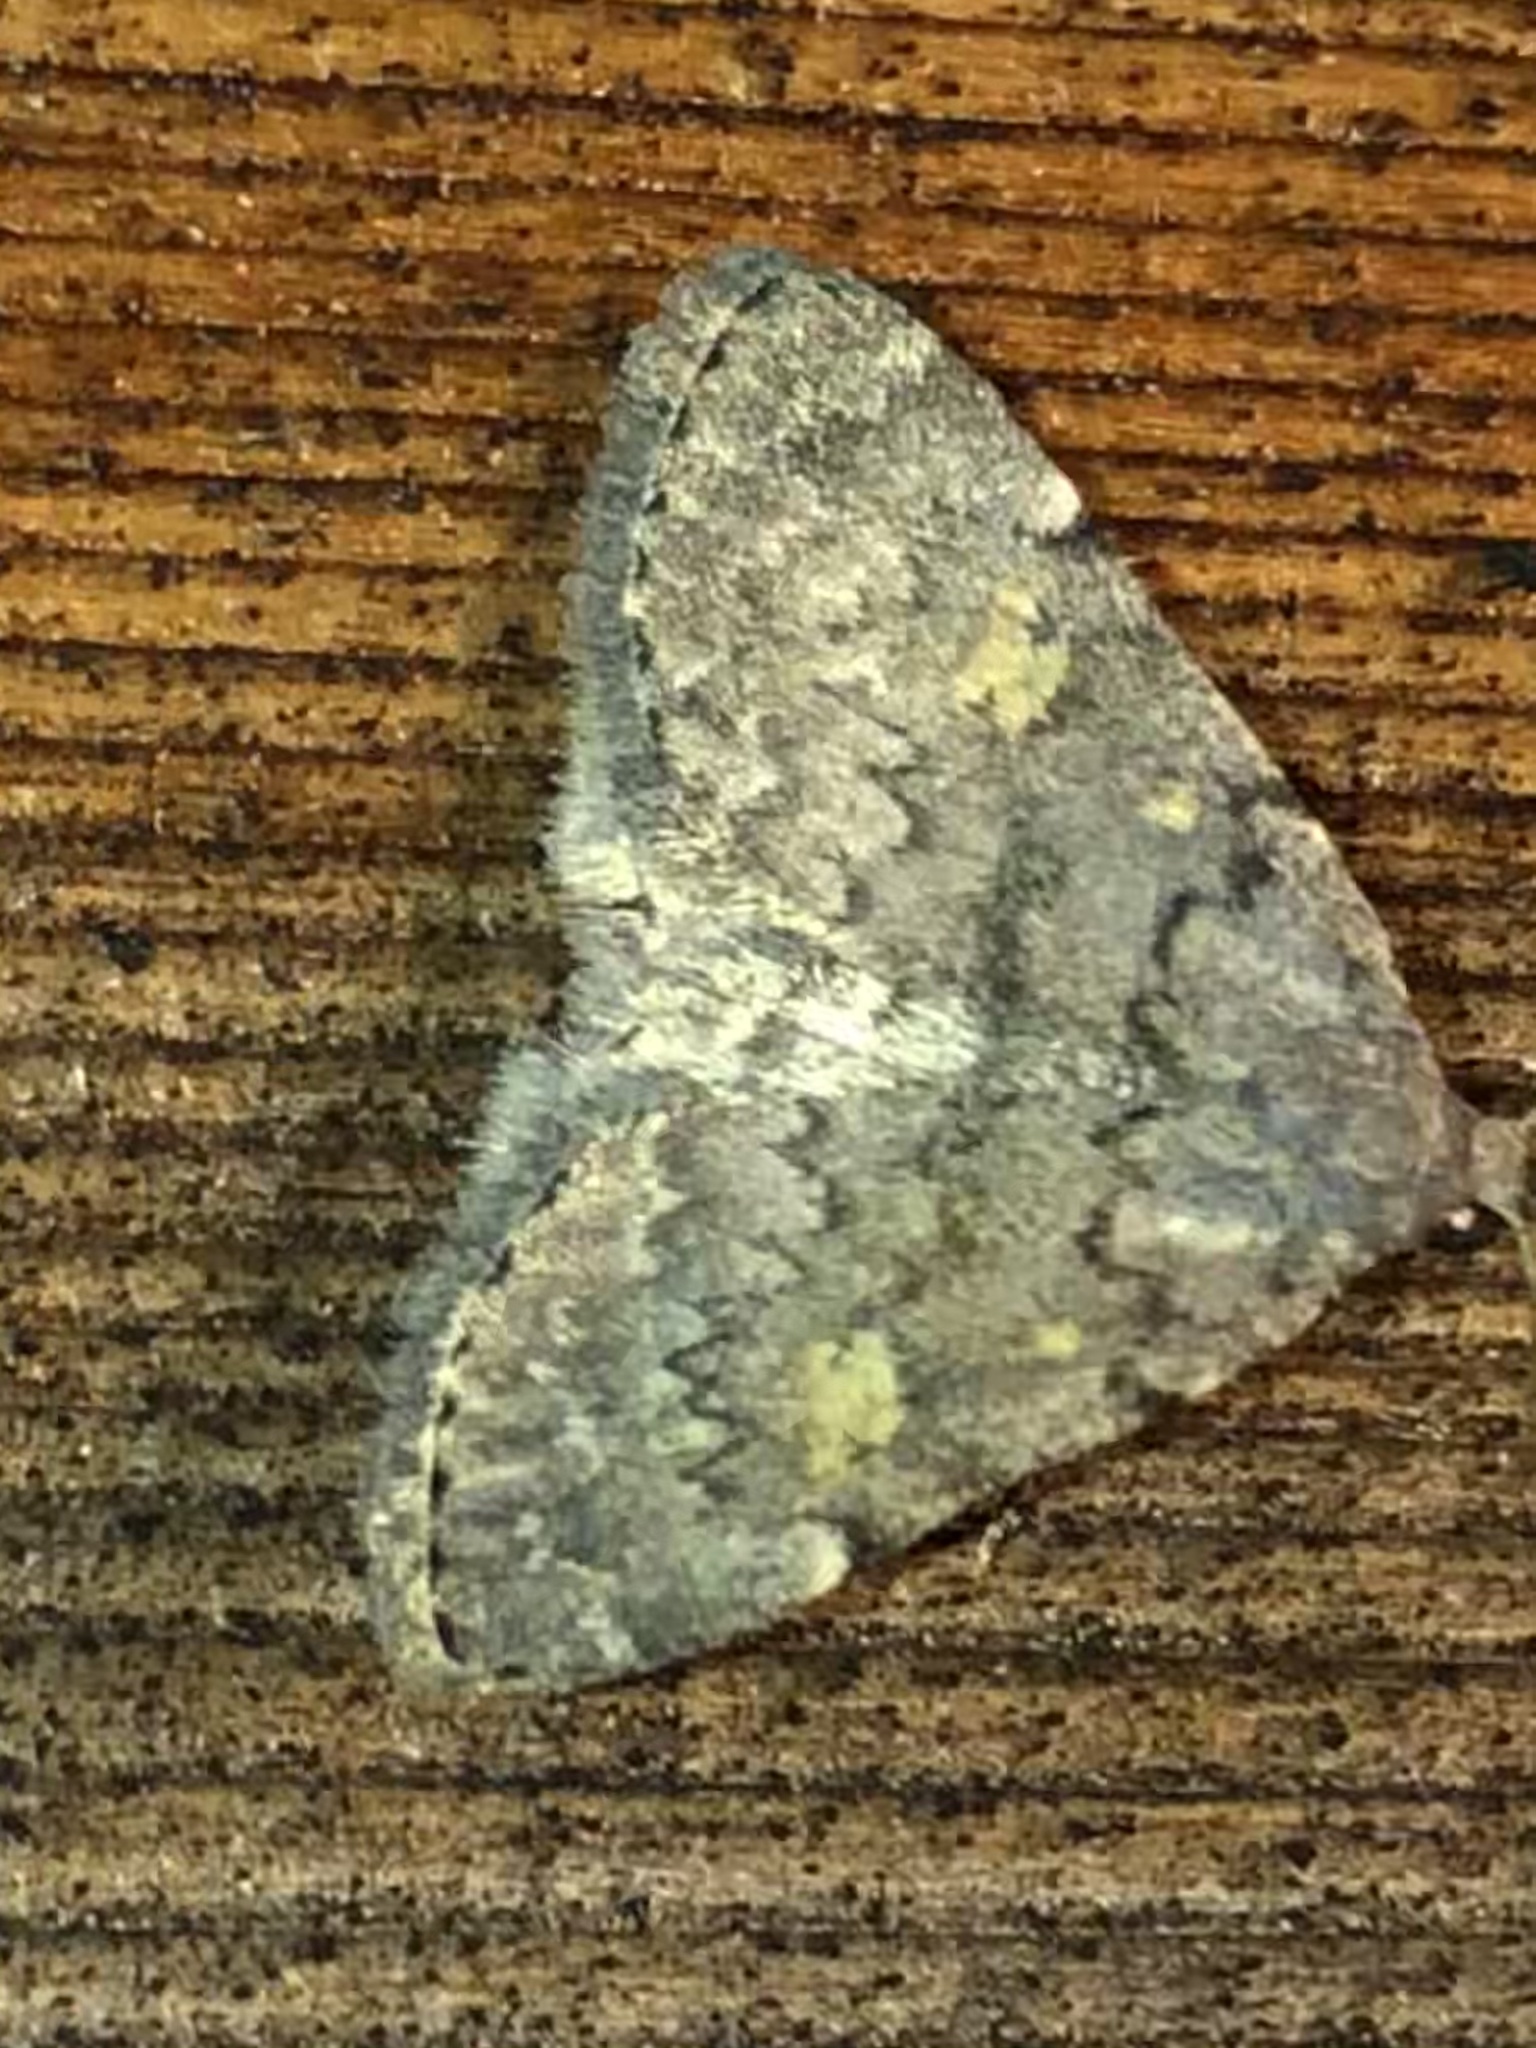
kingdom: Animalia
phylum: Arthropoda
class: Insecta
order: Lepidoptera
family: Erebidae
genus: Idia
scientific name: Idia aemula
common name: Common idia moth
